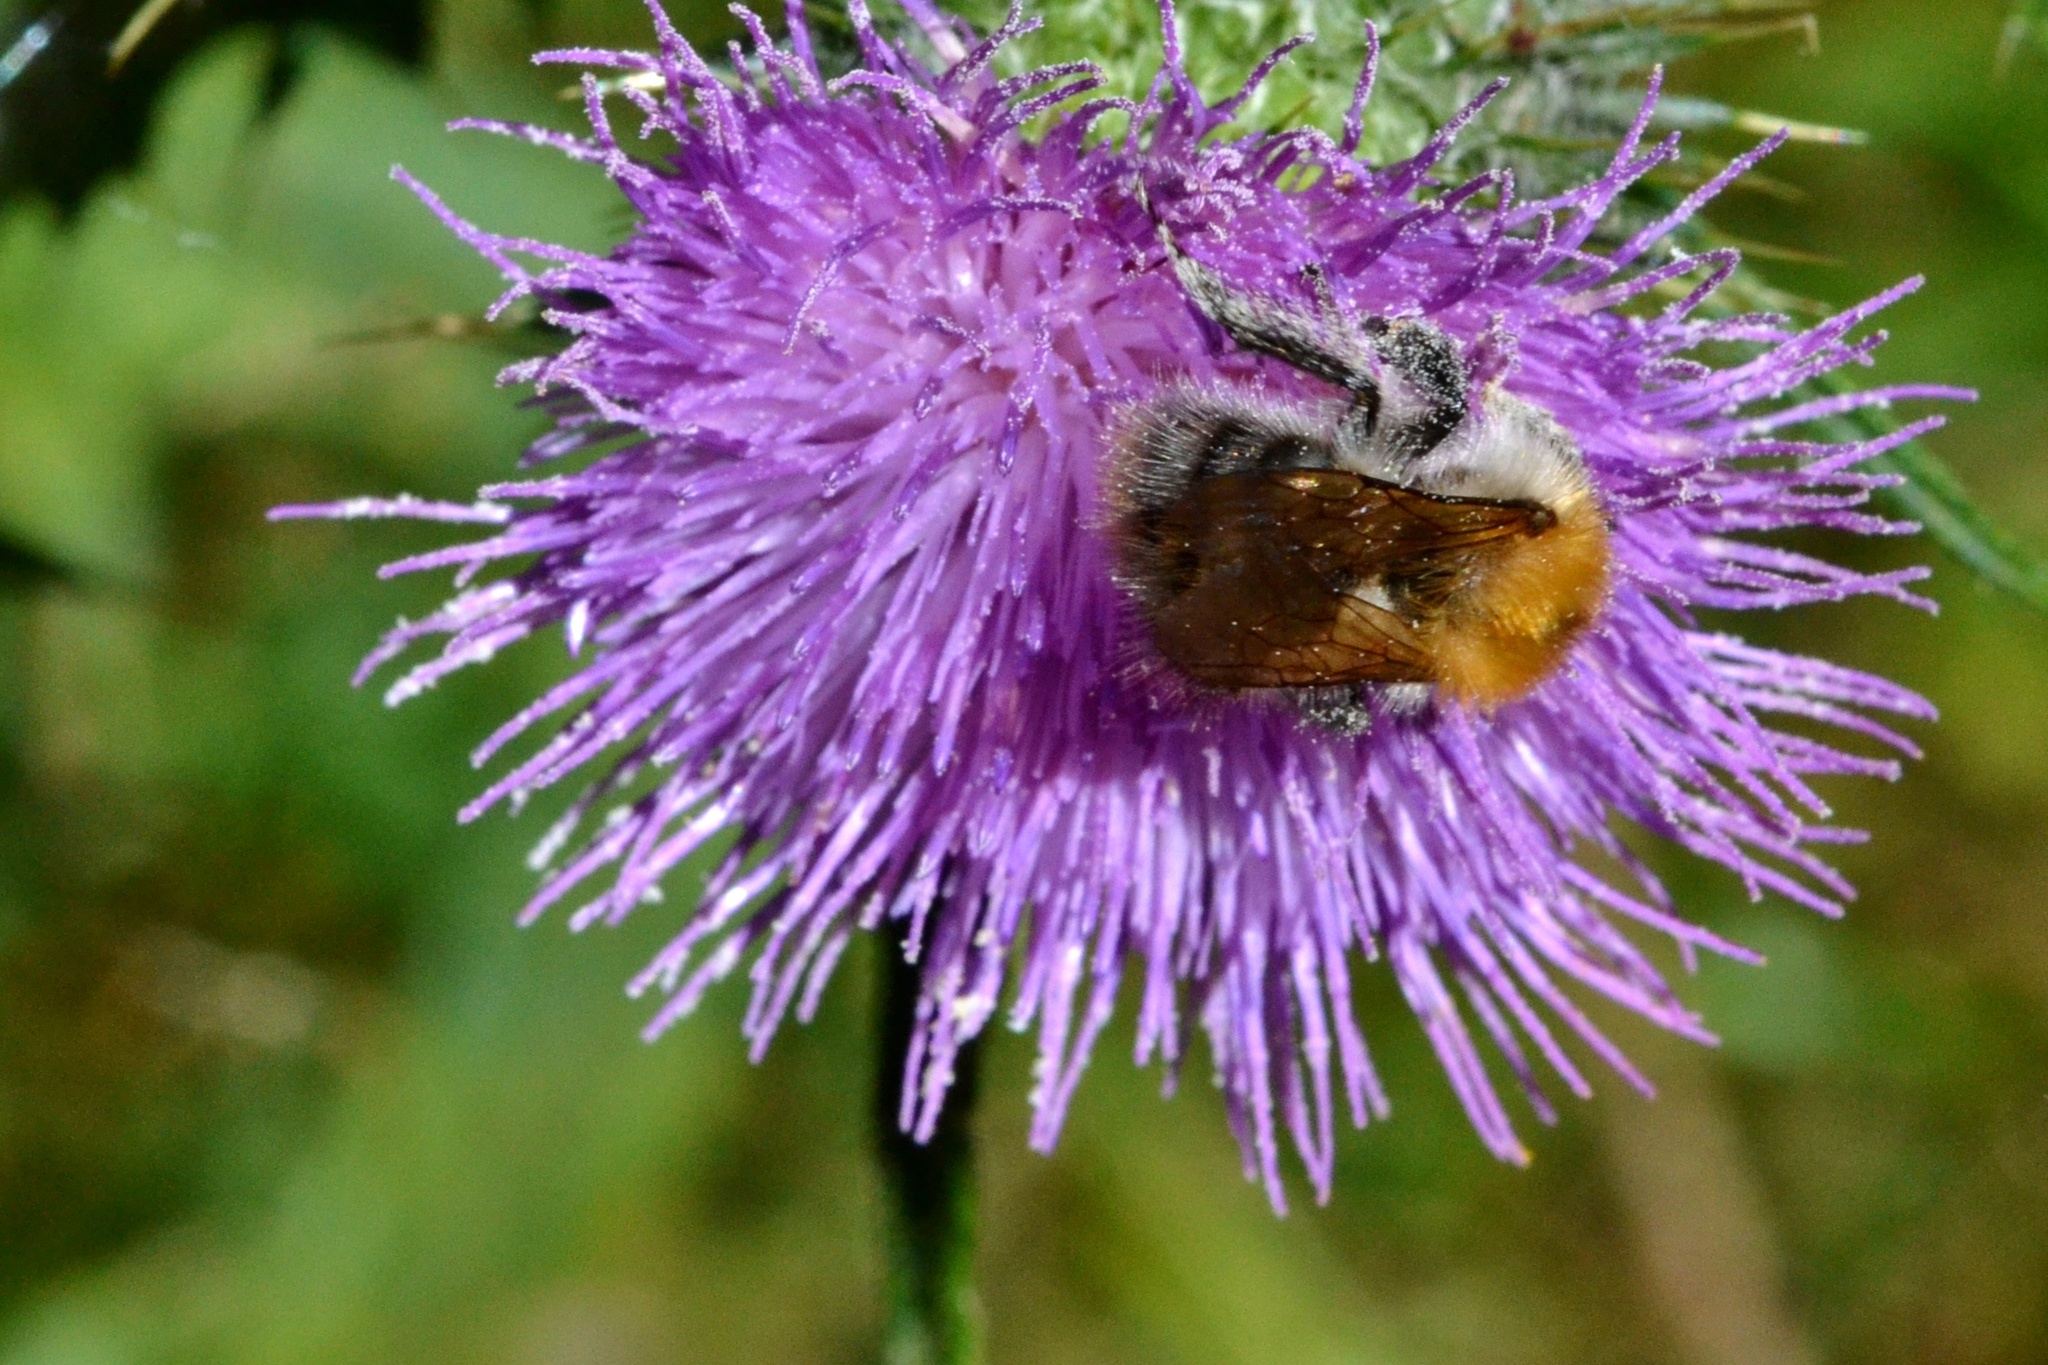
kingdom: Animalia
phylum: Arthropoda
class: Insecta
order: Hymenoptera
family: Apidae
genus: Bombus
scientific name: Bombus pascuorum
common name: Common carder bee
